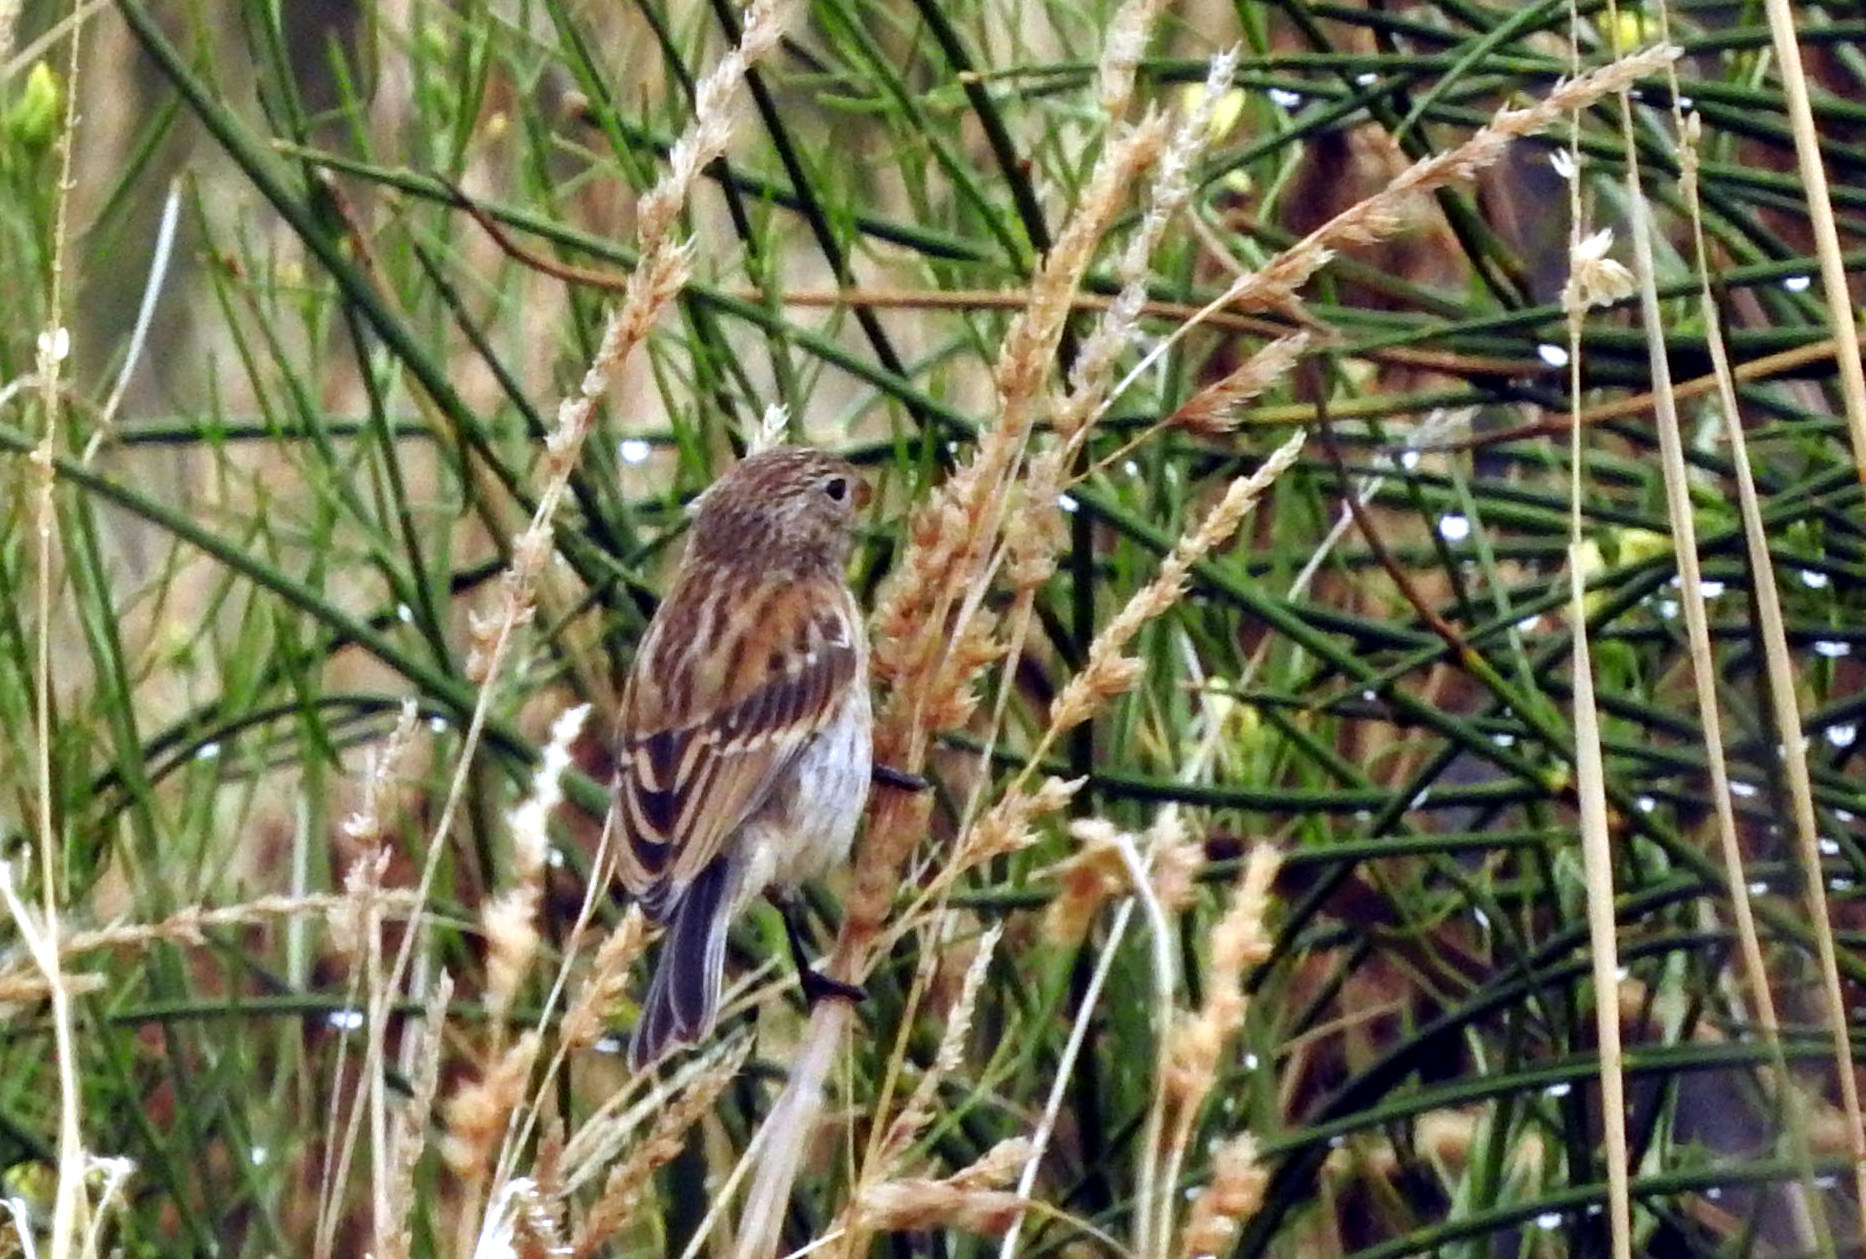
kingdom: Animalia
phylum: Chordata
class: Aves
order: Passeriformes
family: Thraupidae
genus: Catamenia
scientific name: Catamenia analis
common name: Band-tailed seedeater
